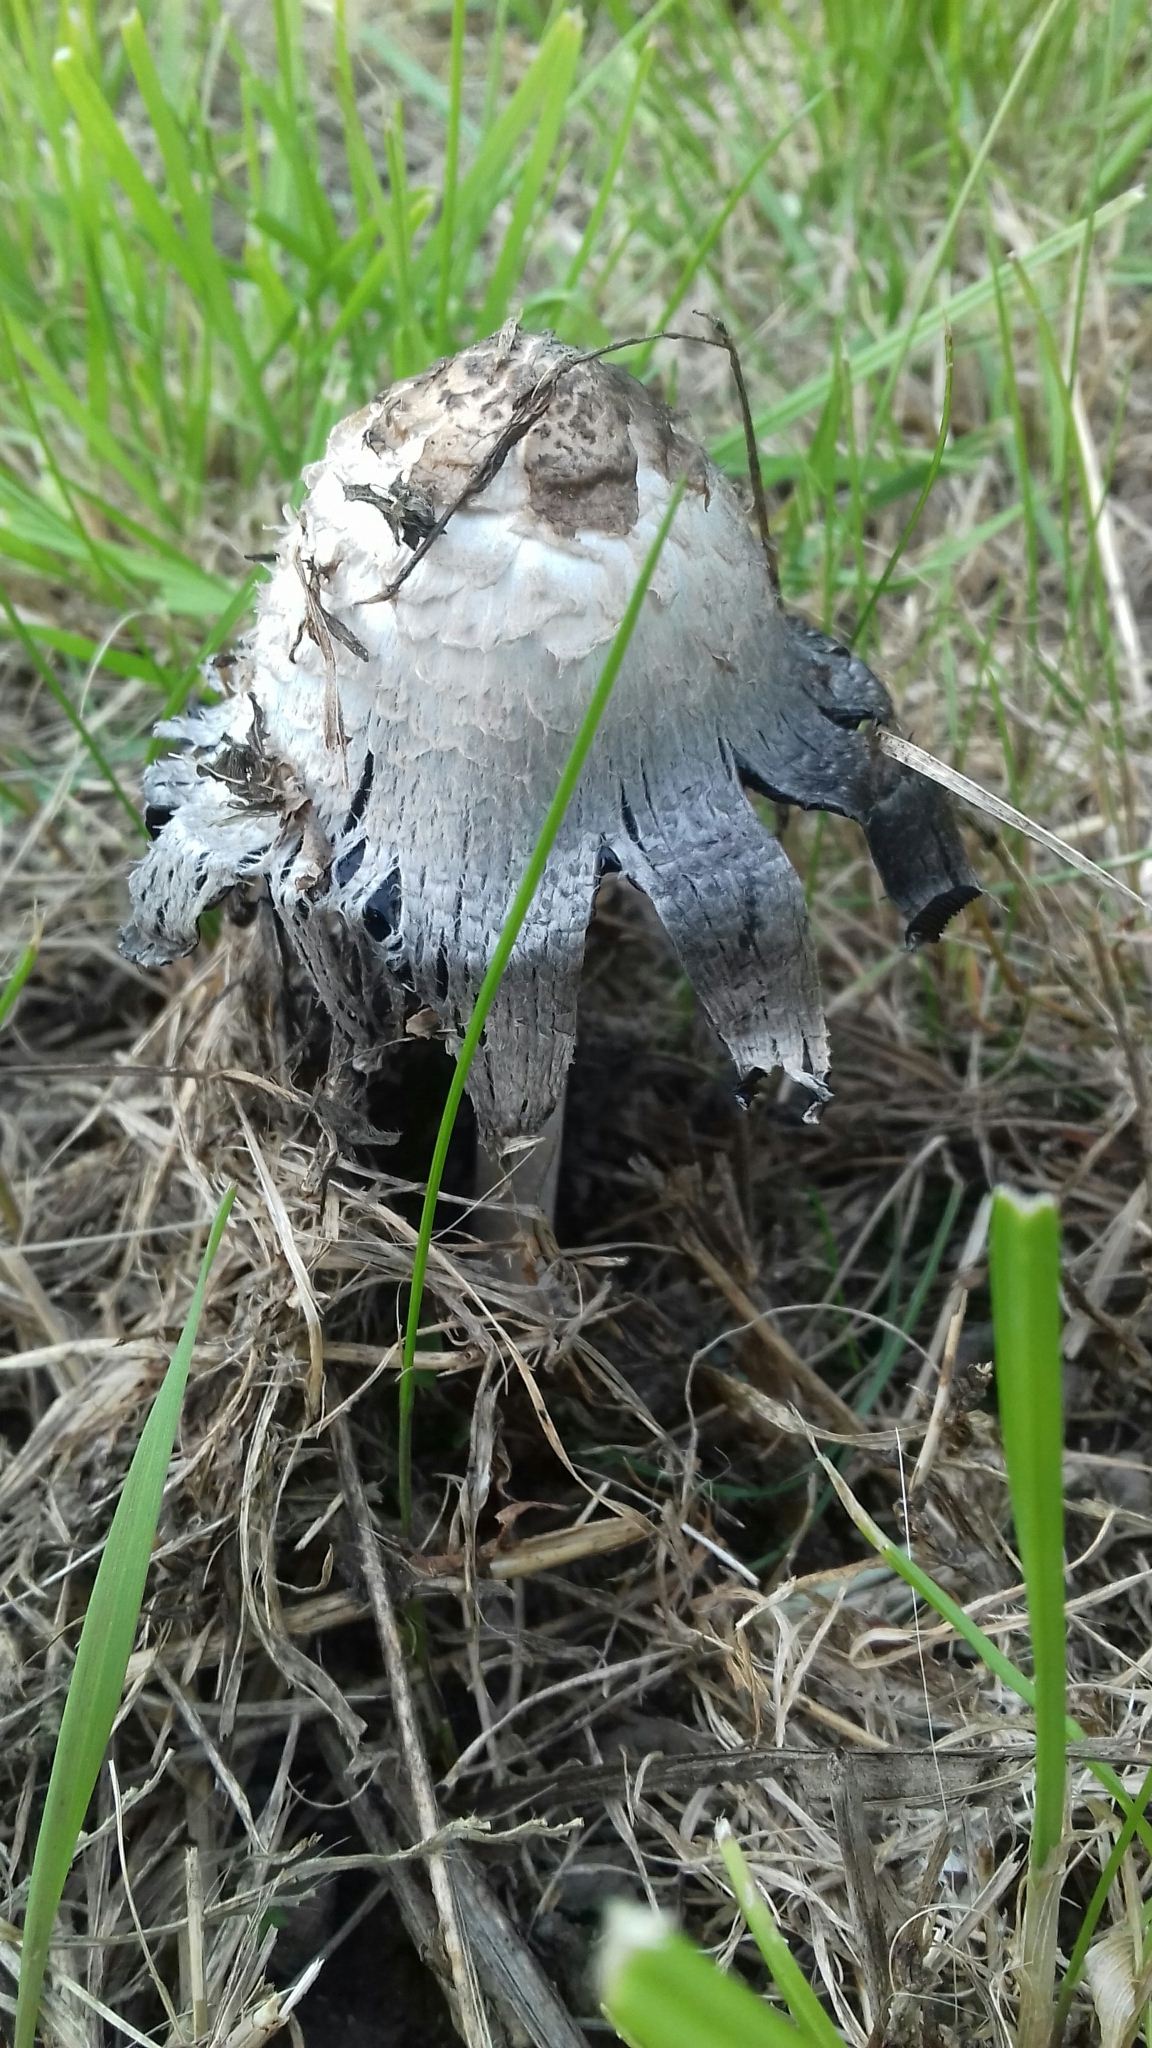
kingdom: Fungi
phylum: Basidiomycota
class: Agaricomycetes
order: Agaricales
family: Agaricaceae
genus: Coprinus
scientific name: Coprinus comatus
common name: Lawyer's wig
